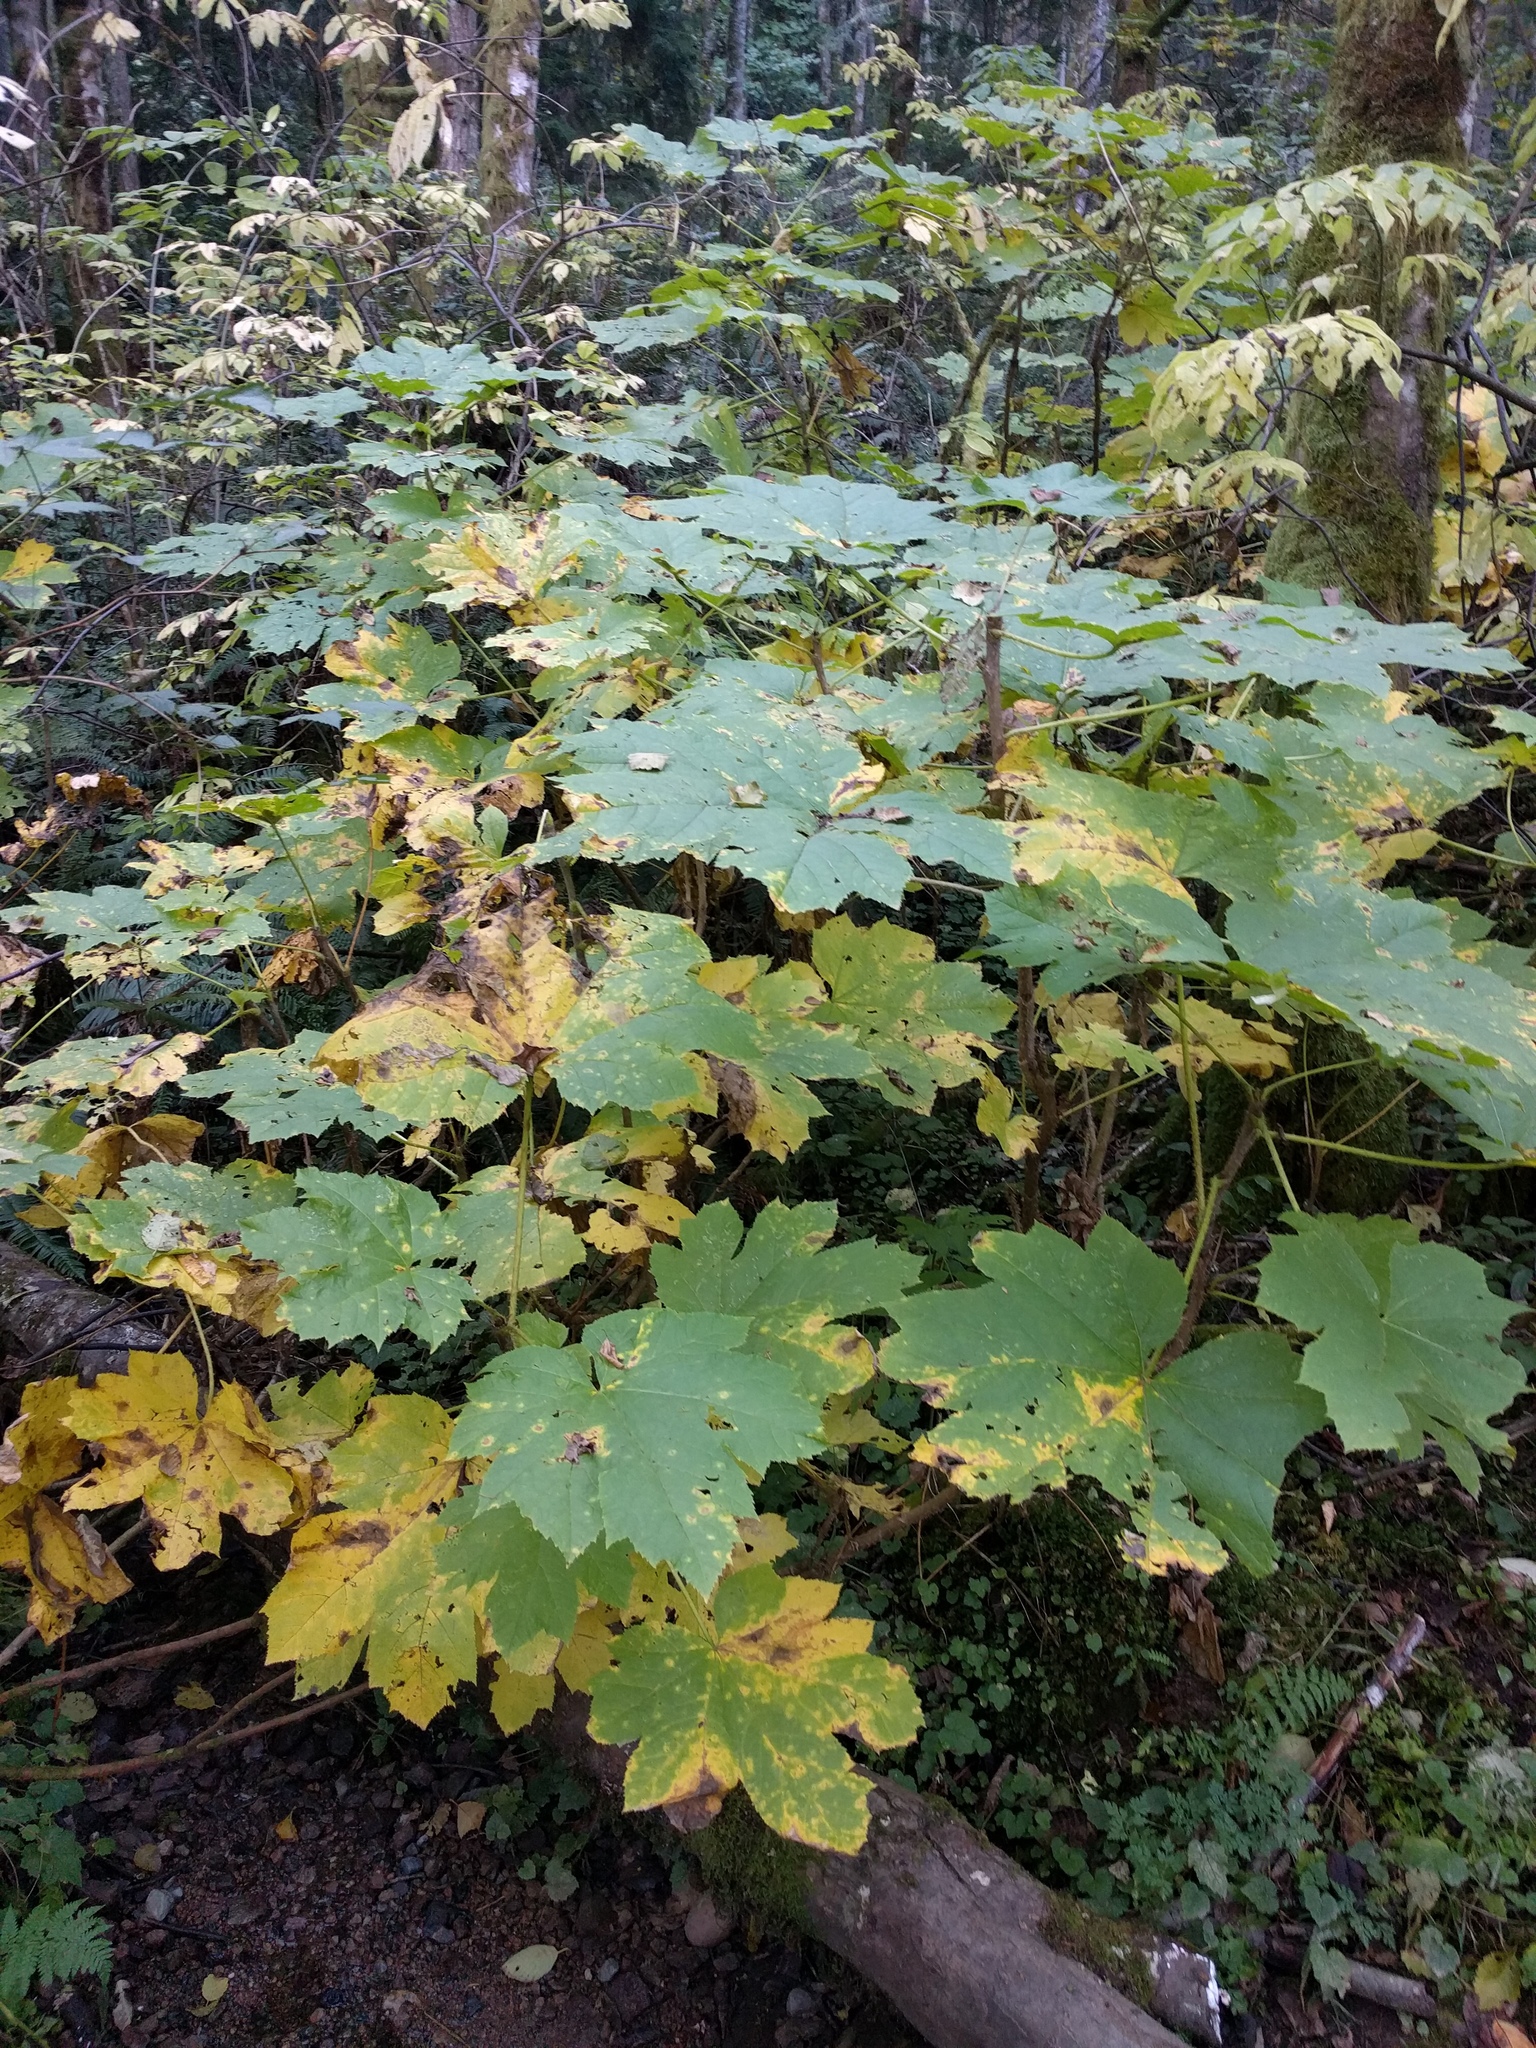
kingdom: Plantae
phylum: Tracheophyta
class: Magnoliopsida
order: Apiales
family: Araliaceae
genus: Oplopanax
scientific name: Oplopanax horridus
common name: Devil's walking-stick
